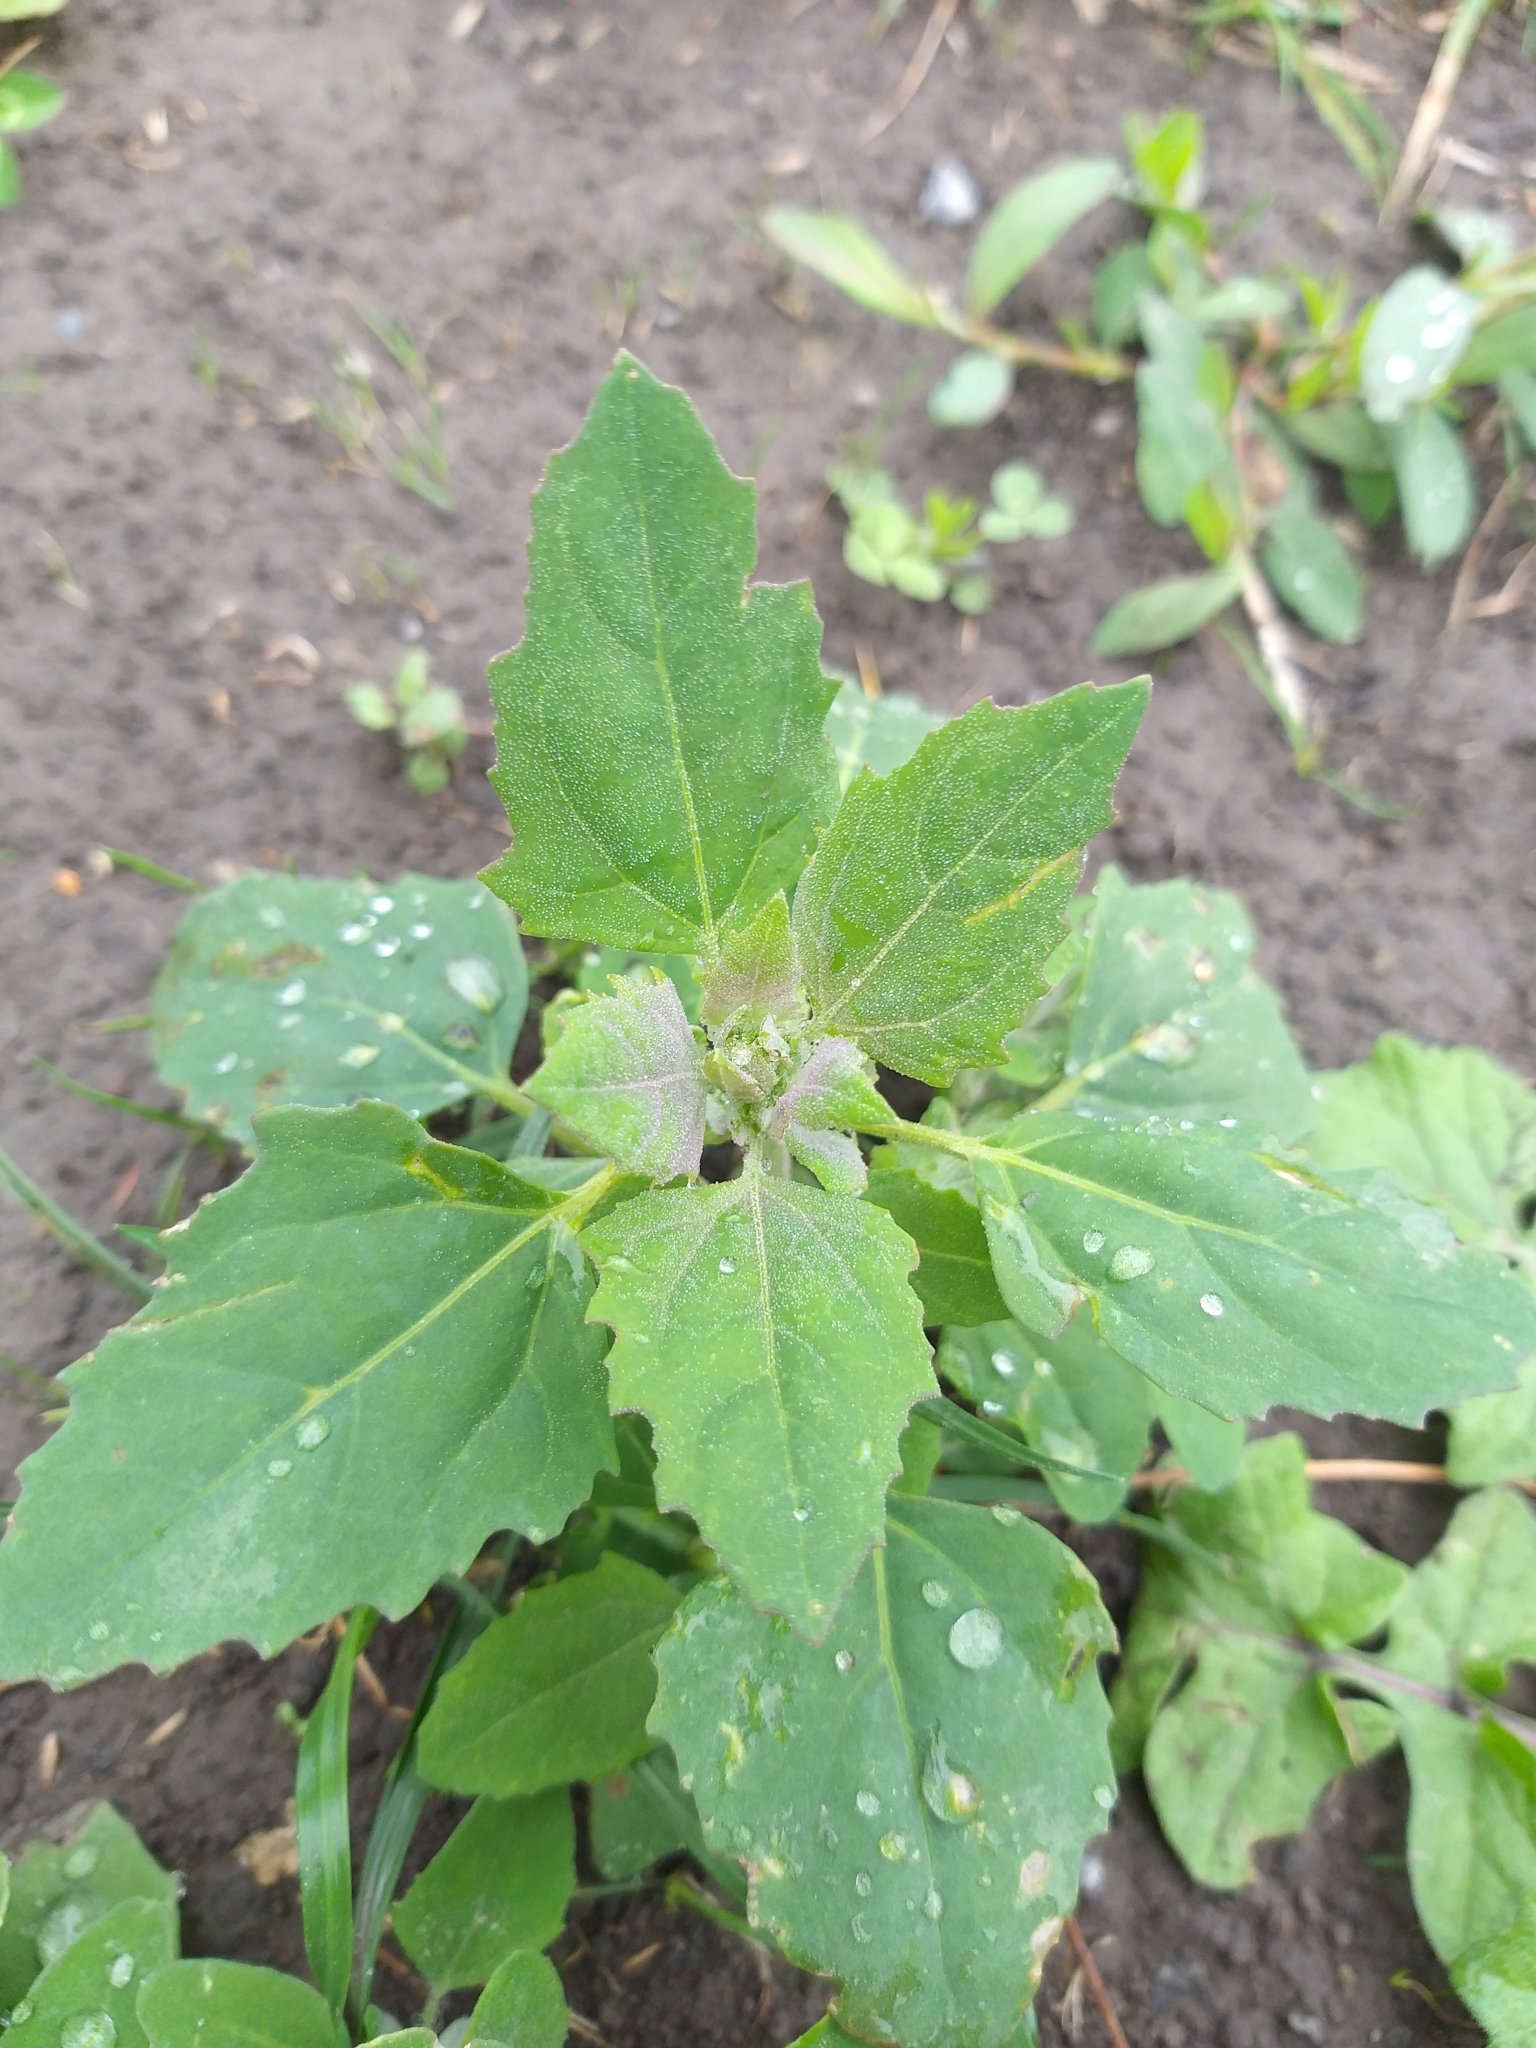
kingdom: Plantae
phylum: Tracheophyta
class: Magnoliopsida
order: Caryophyllales
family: Amaranthaceae
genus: Chenopodium
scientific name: Chenopodium album
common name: Fat-hen
